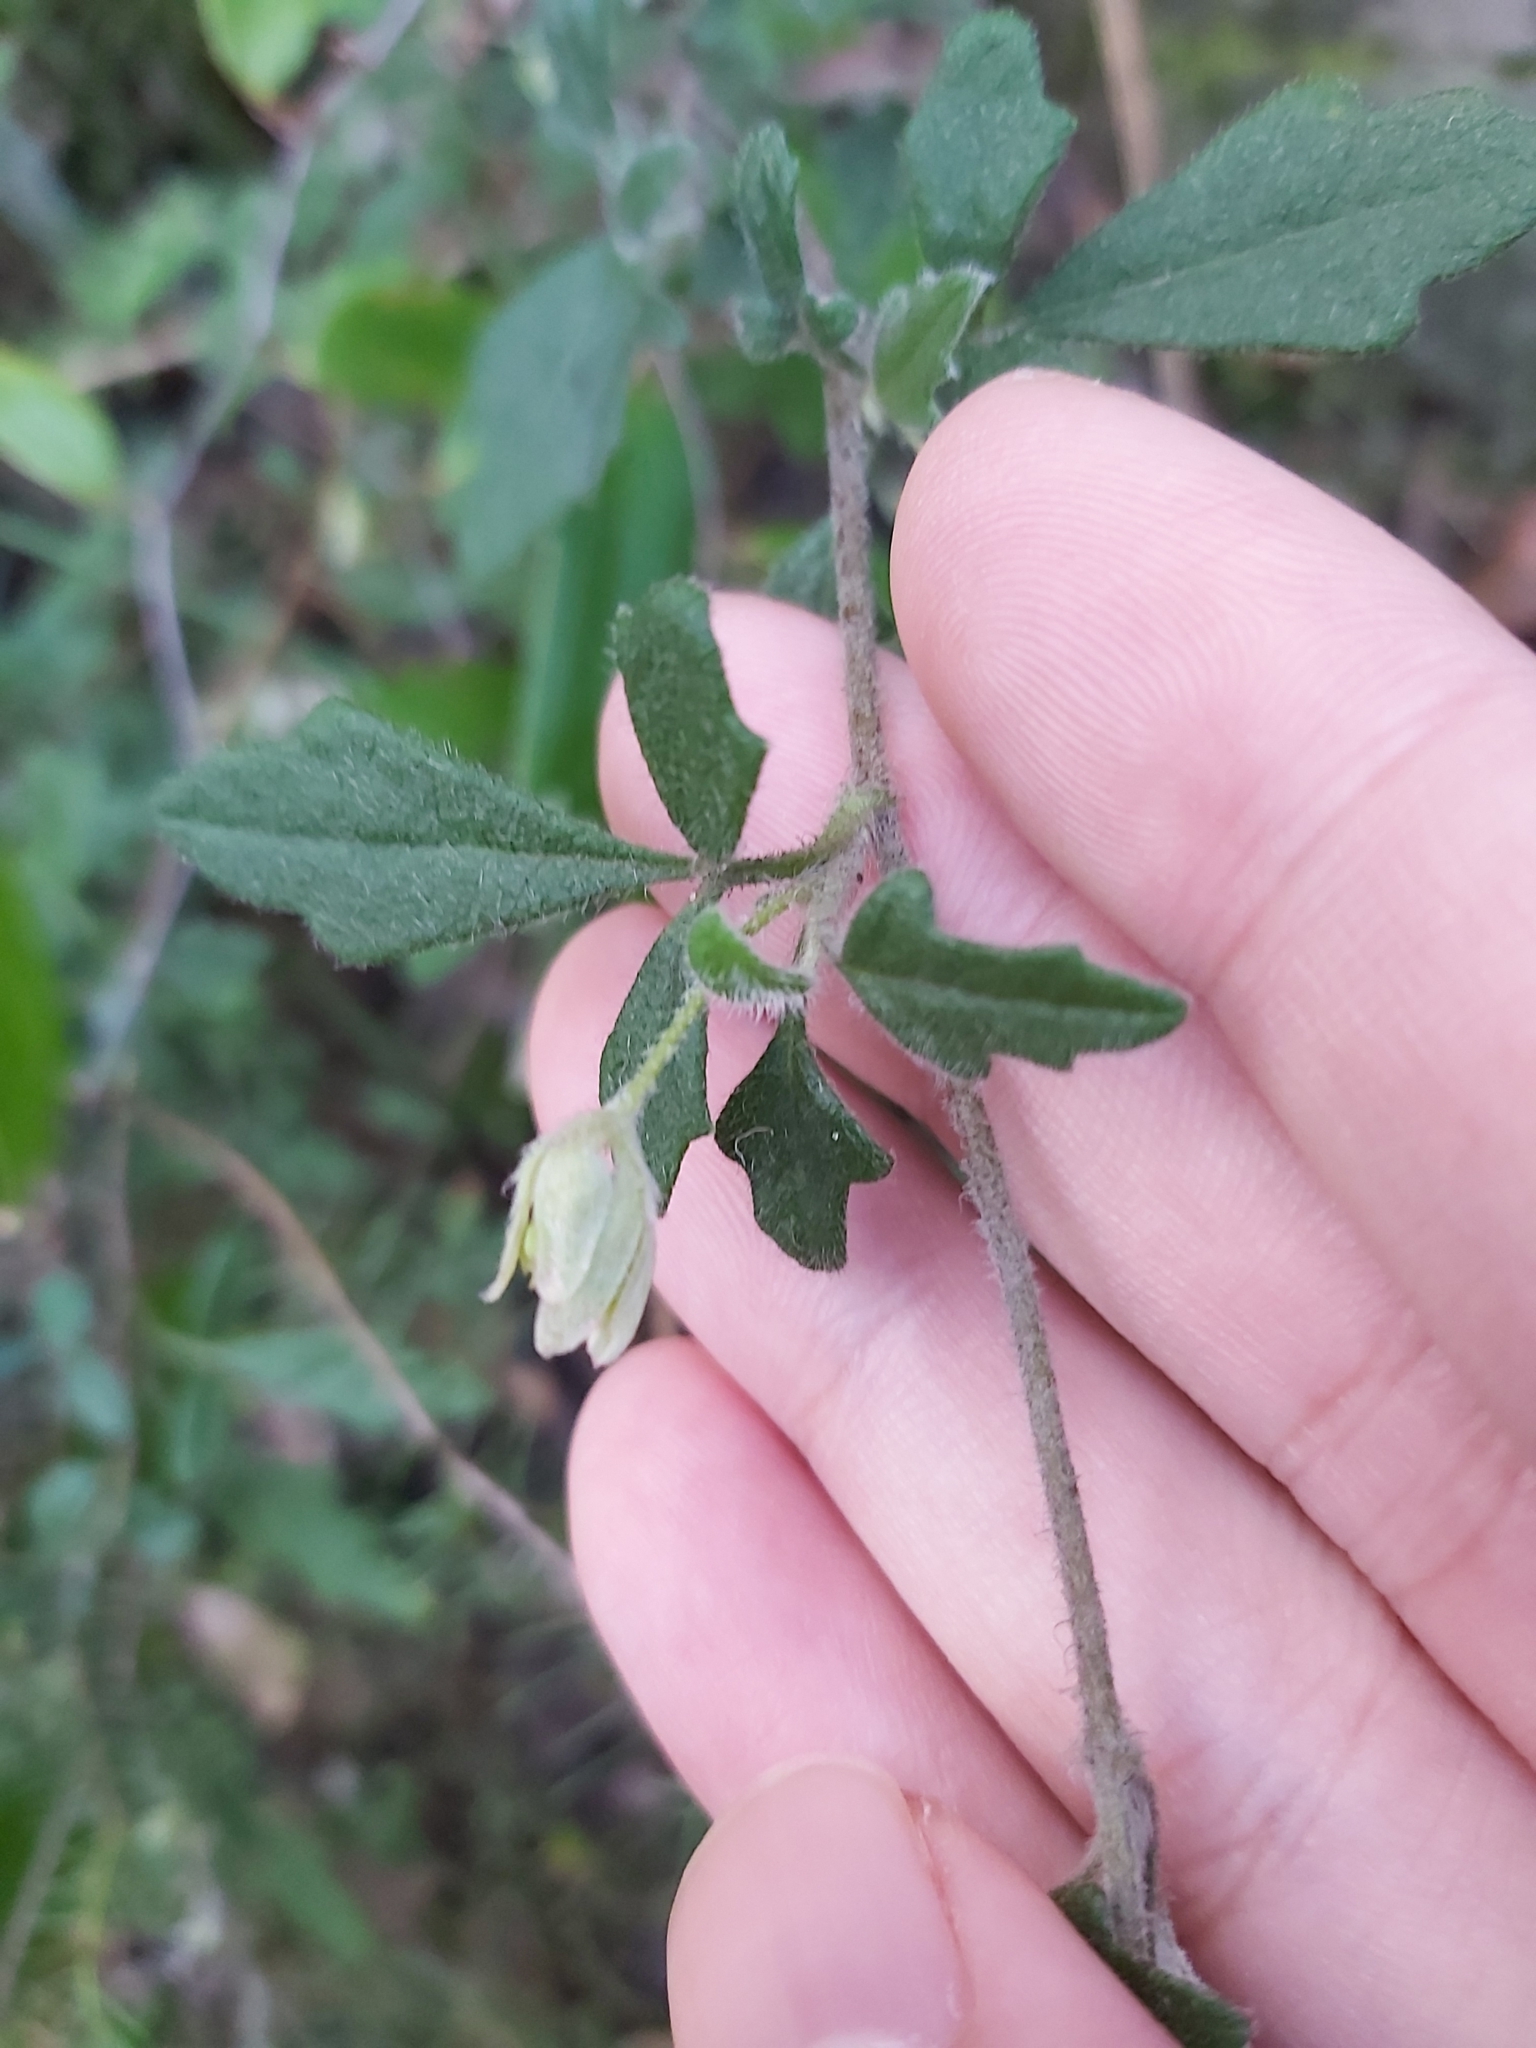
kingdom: Plantae
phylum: Tracheophyta
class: Magnoliopsida
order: Apiales
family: Apiaceae
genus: Xanthosia
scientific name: Xanthosia pilosa
